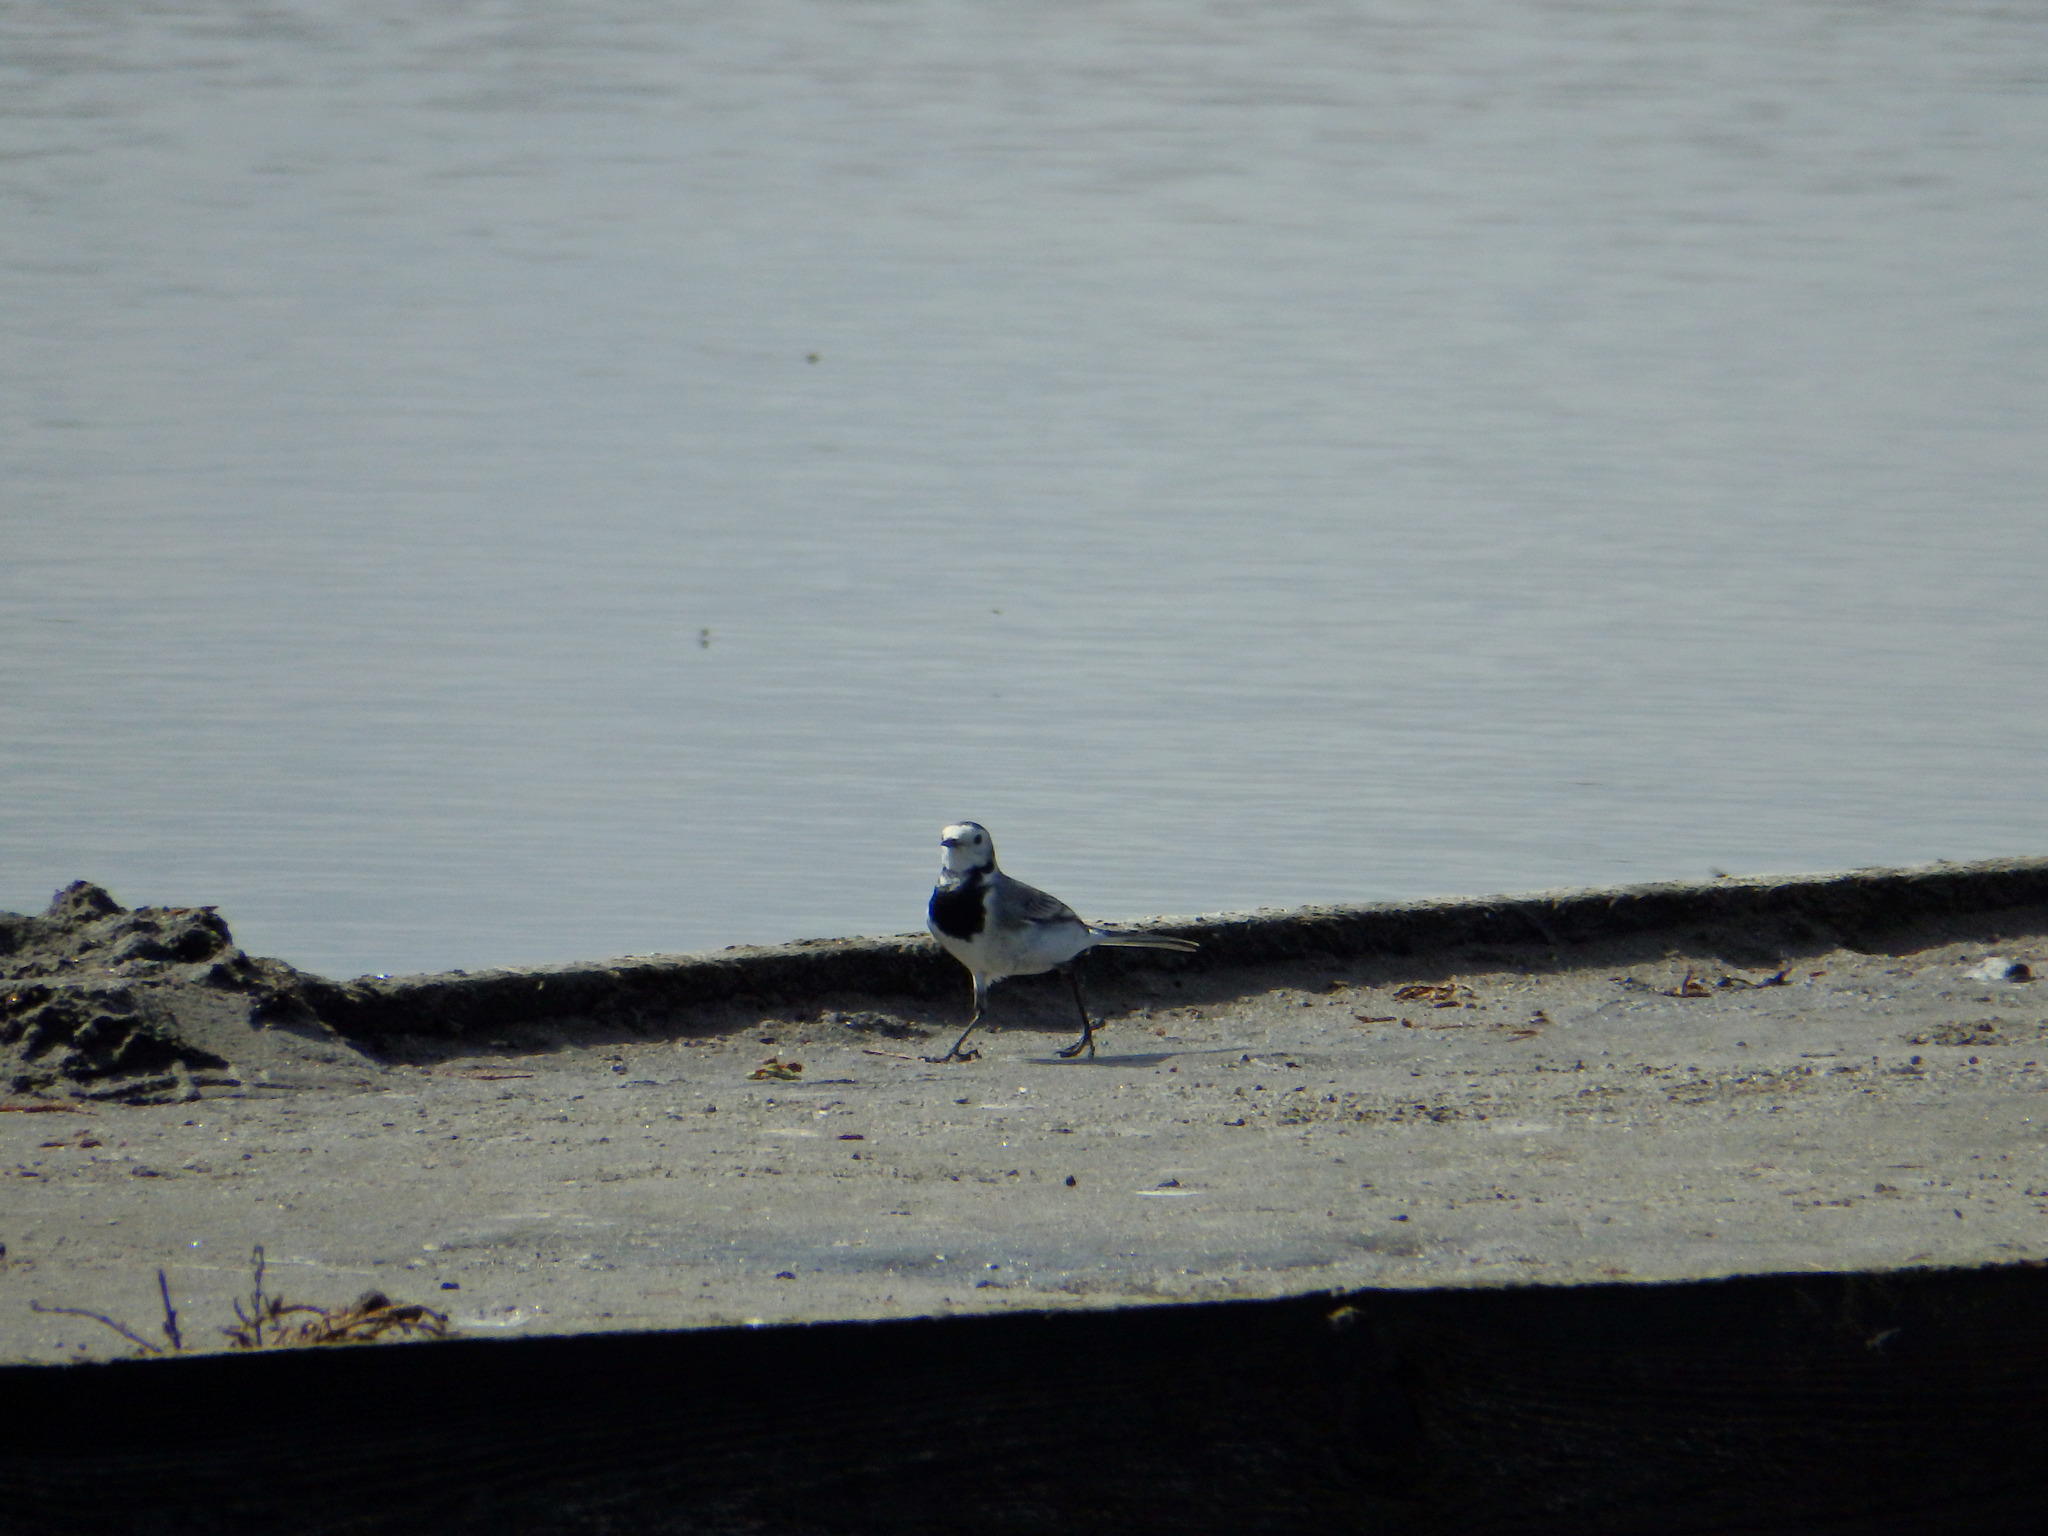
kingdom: Animalia
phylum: Chordata
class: Aves
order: Passeriformes
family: Motacillidae
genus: Motacilla
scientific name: Motacilla alba
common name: White wagtail
